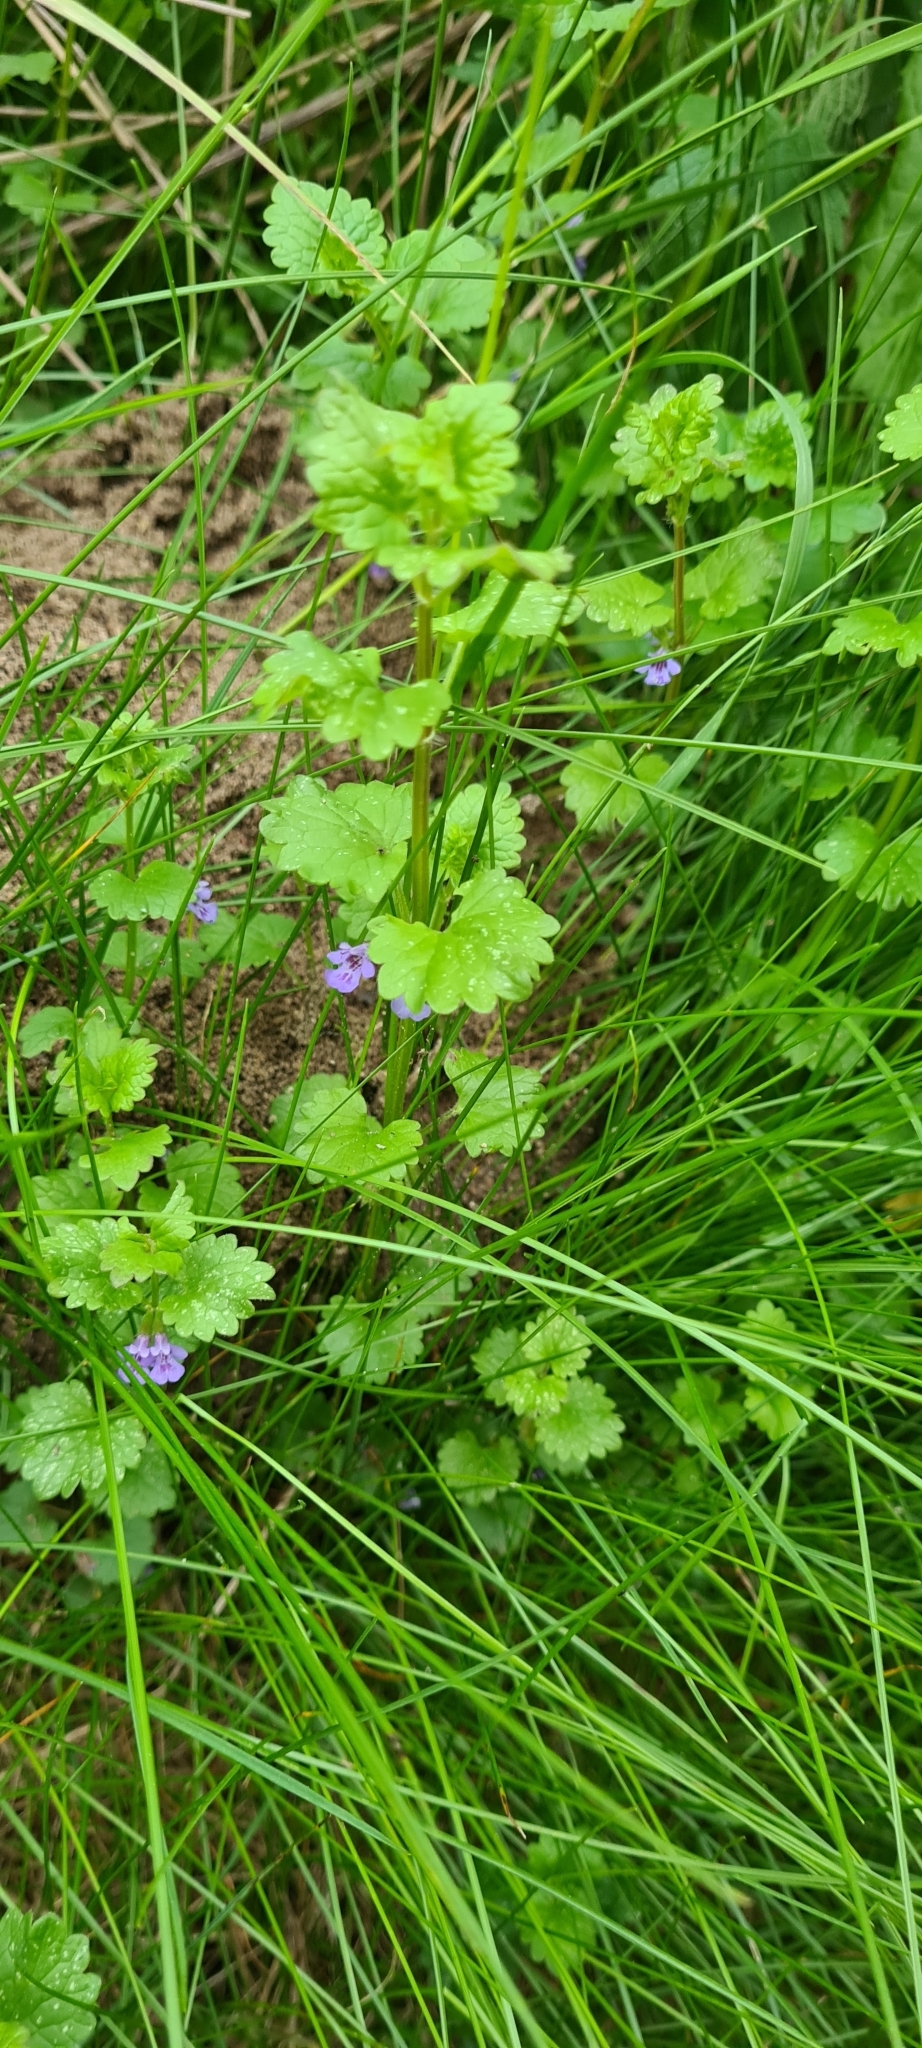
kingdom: Plantae
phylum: Tracheophyta
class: Magnoliopsida
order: Lamiales
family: Lamiaceae
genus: Glechoma
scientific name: Glechoma hederacea
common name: Ground ivy
